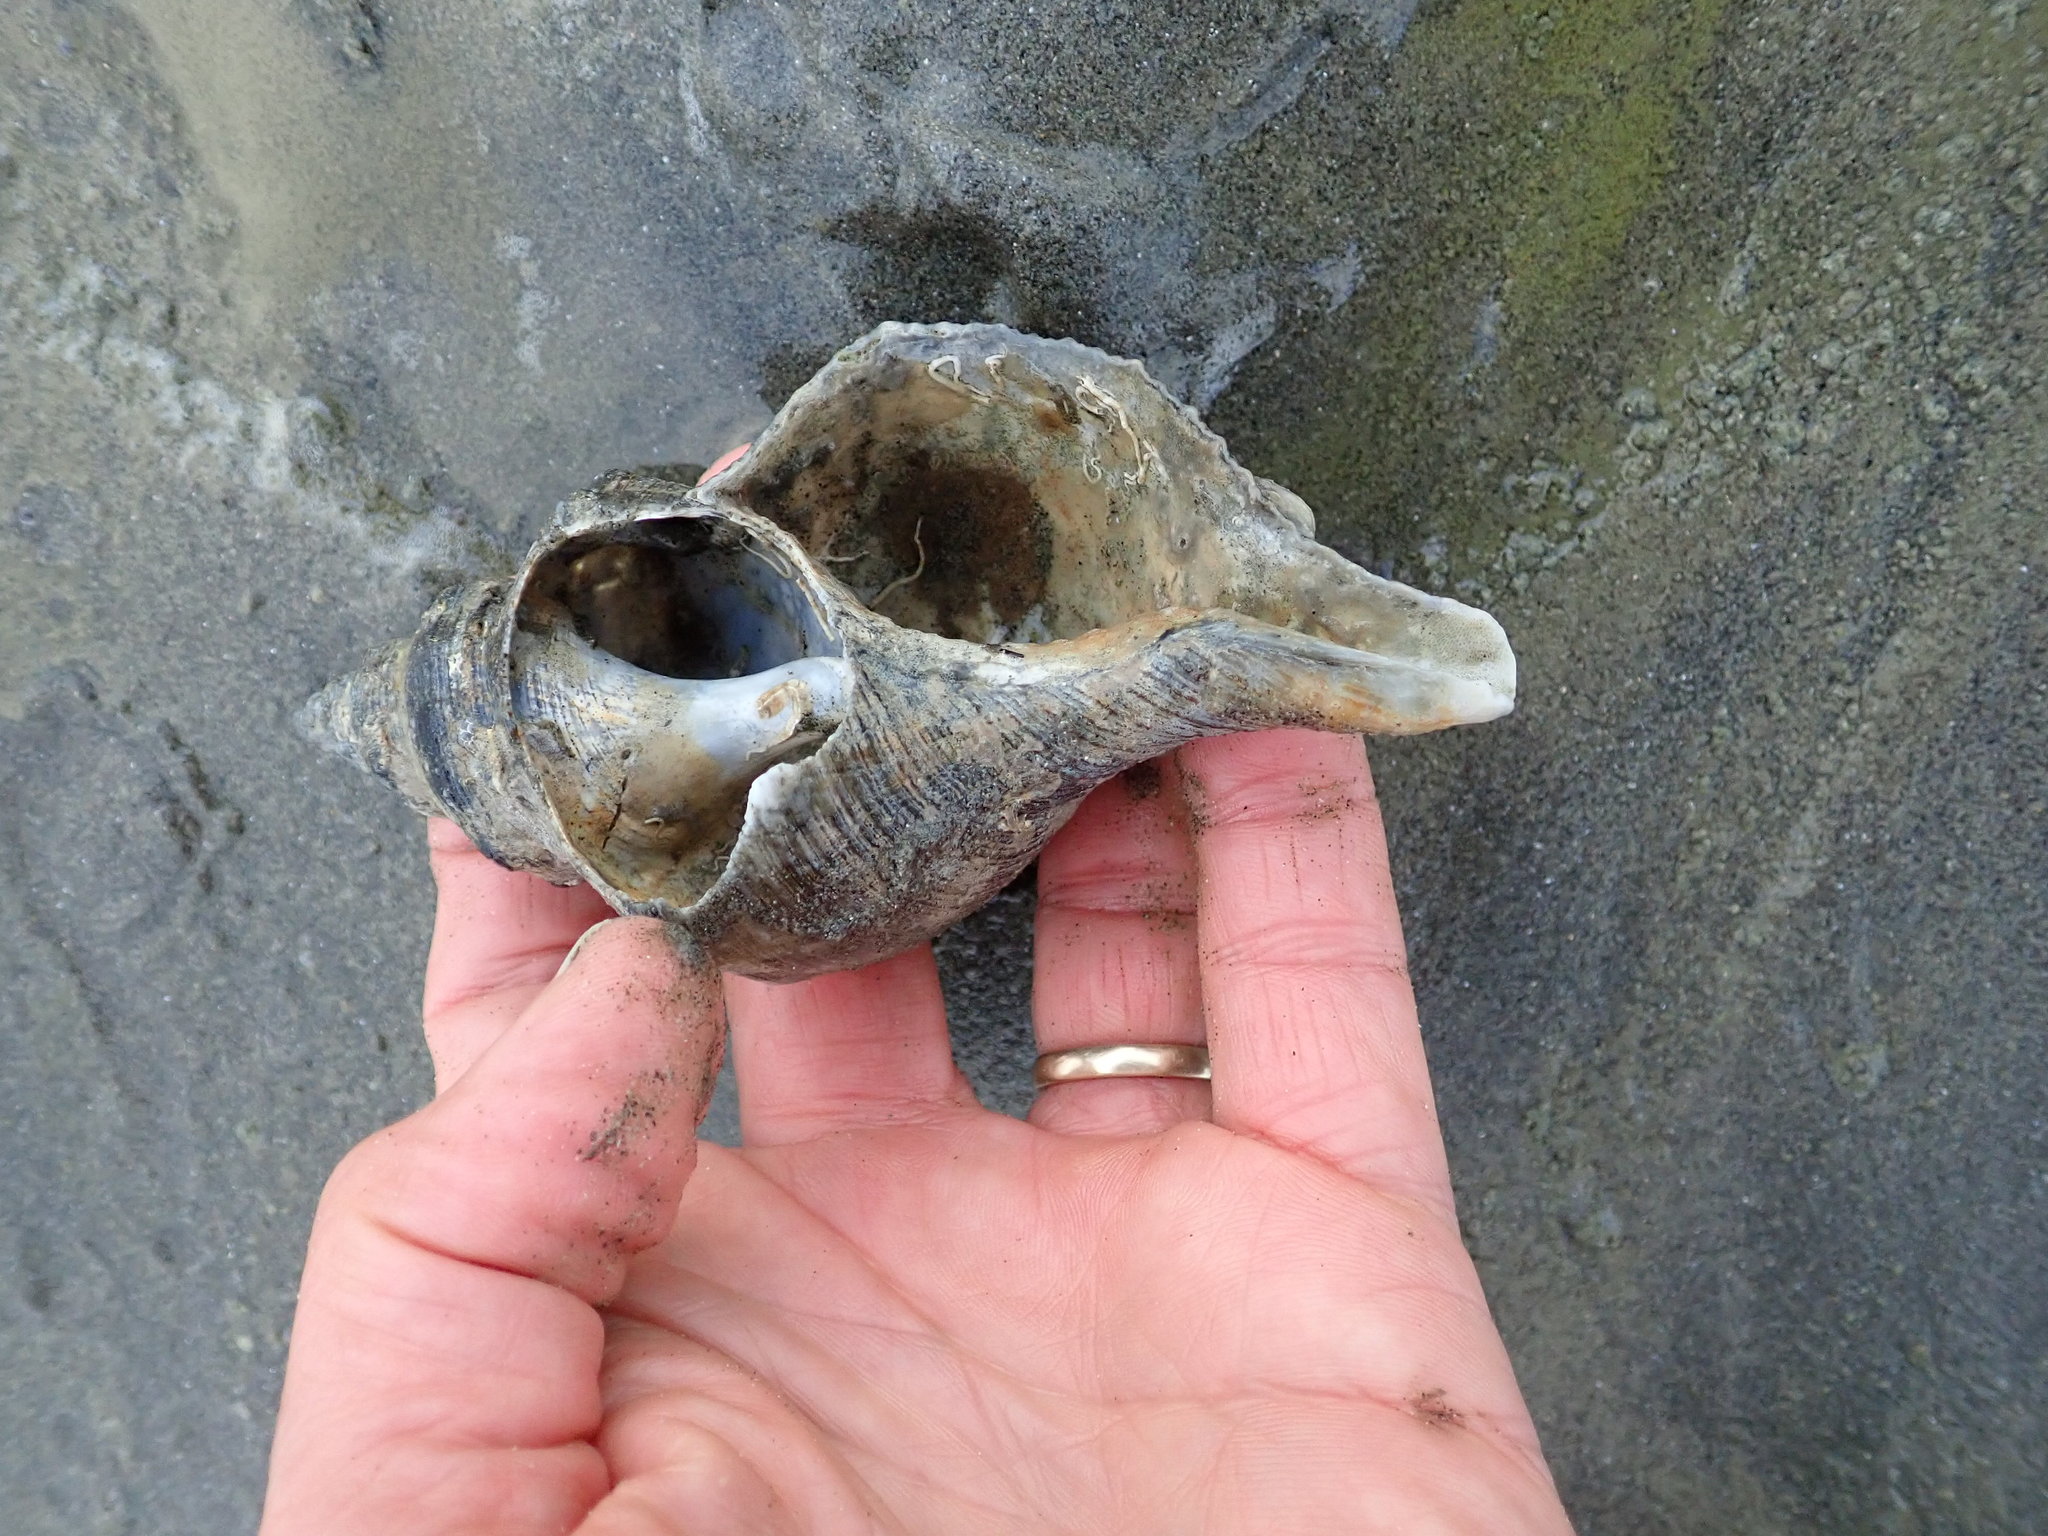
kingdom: Animalia
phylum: Mollusca
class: Gastropoda
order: Neogastropoda
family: Austrosiphonidae
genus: Penion
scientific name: Penion sulcatus
